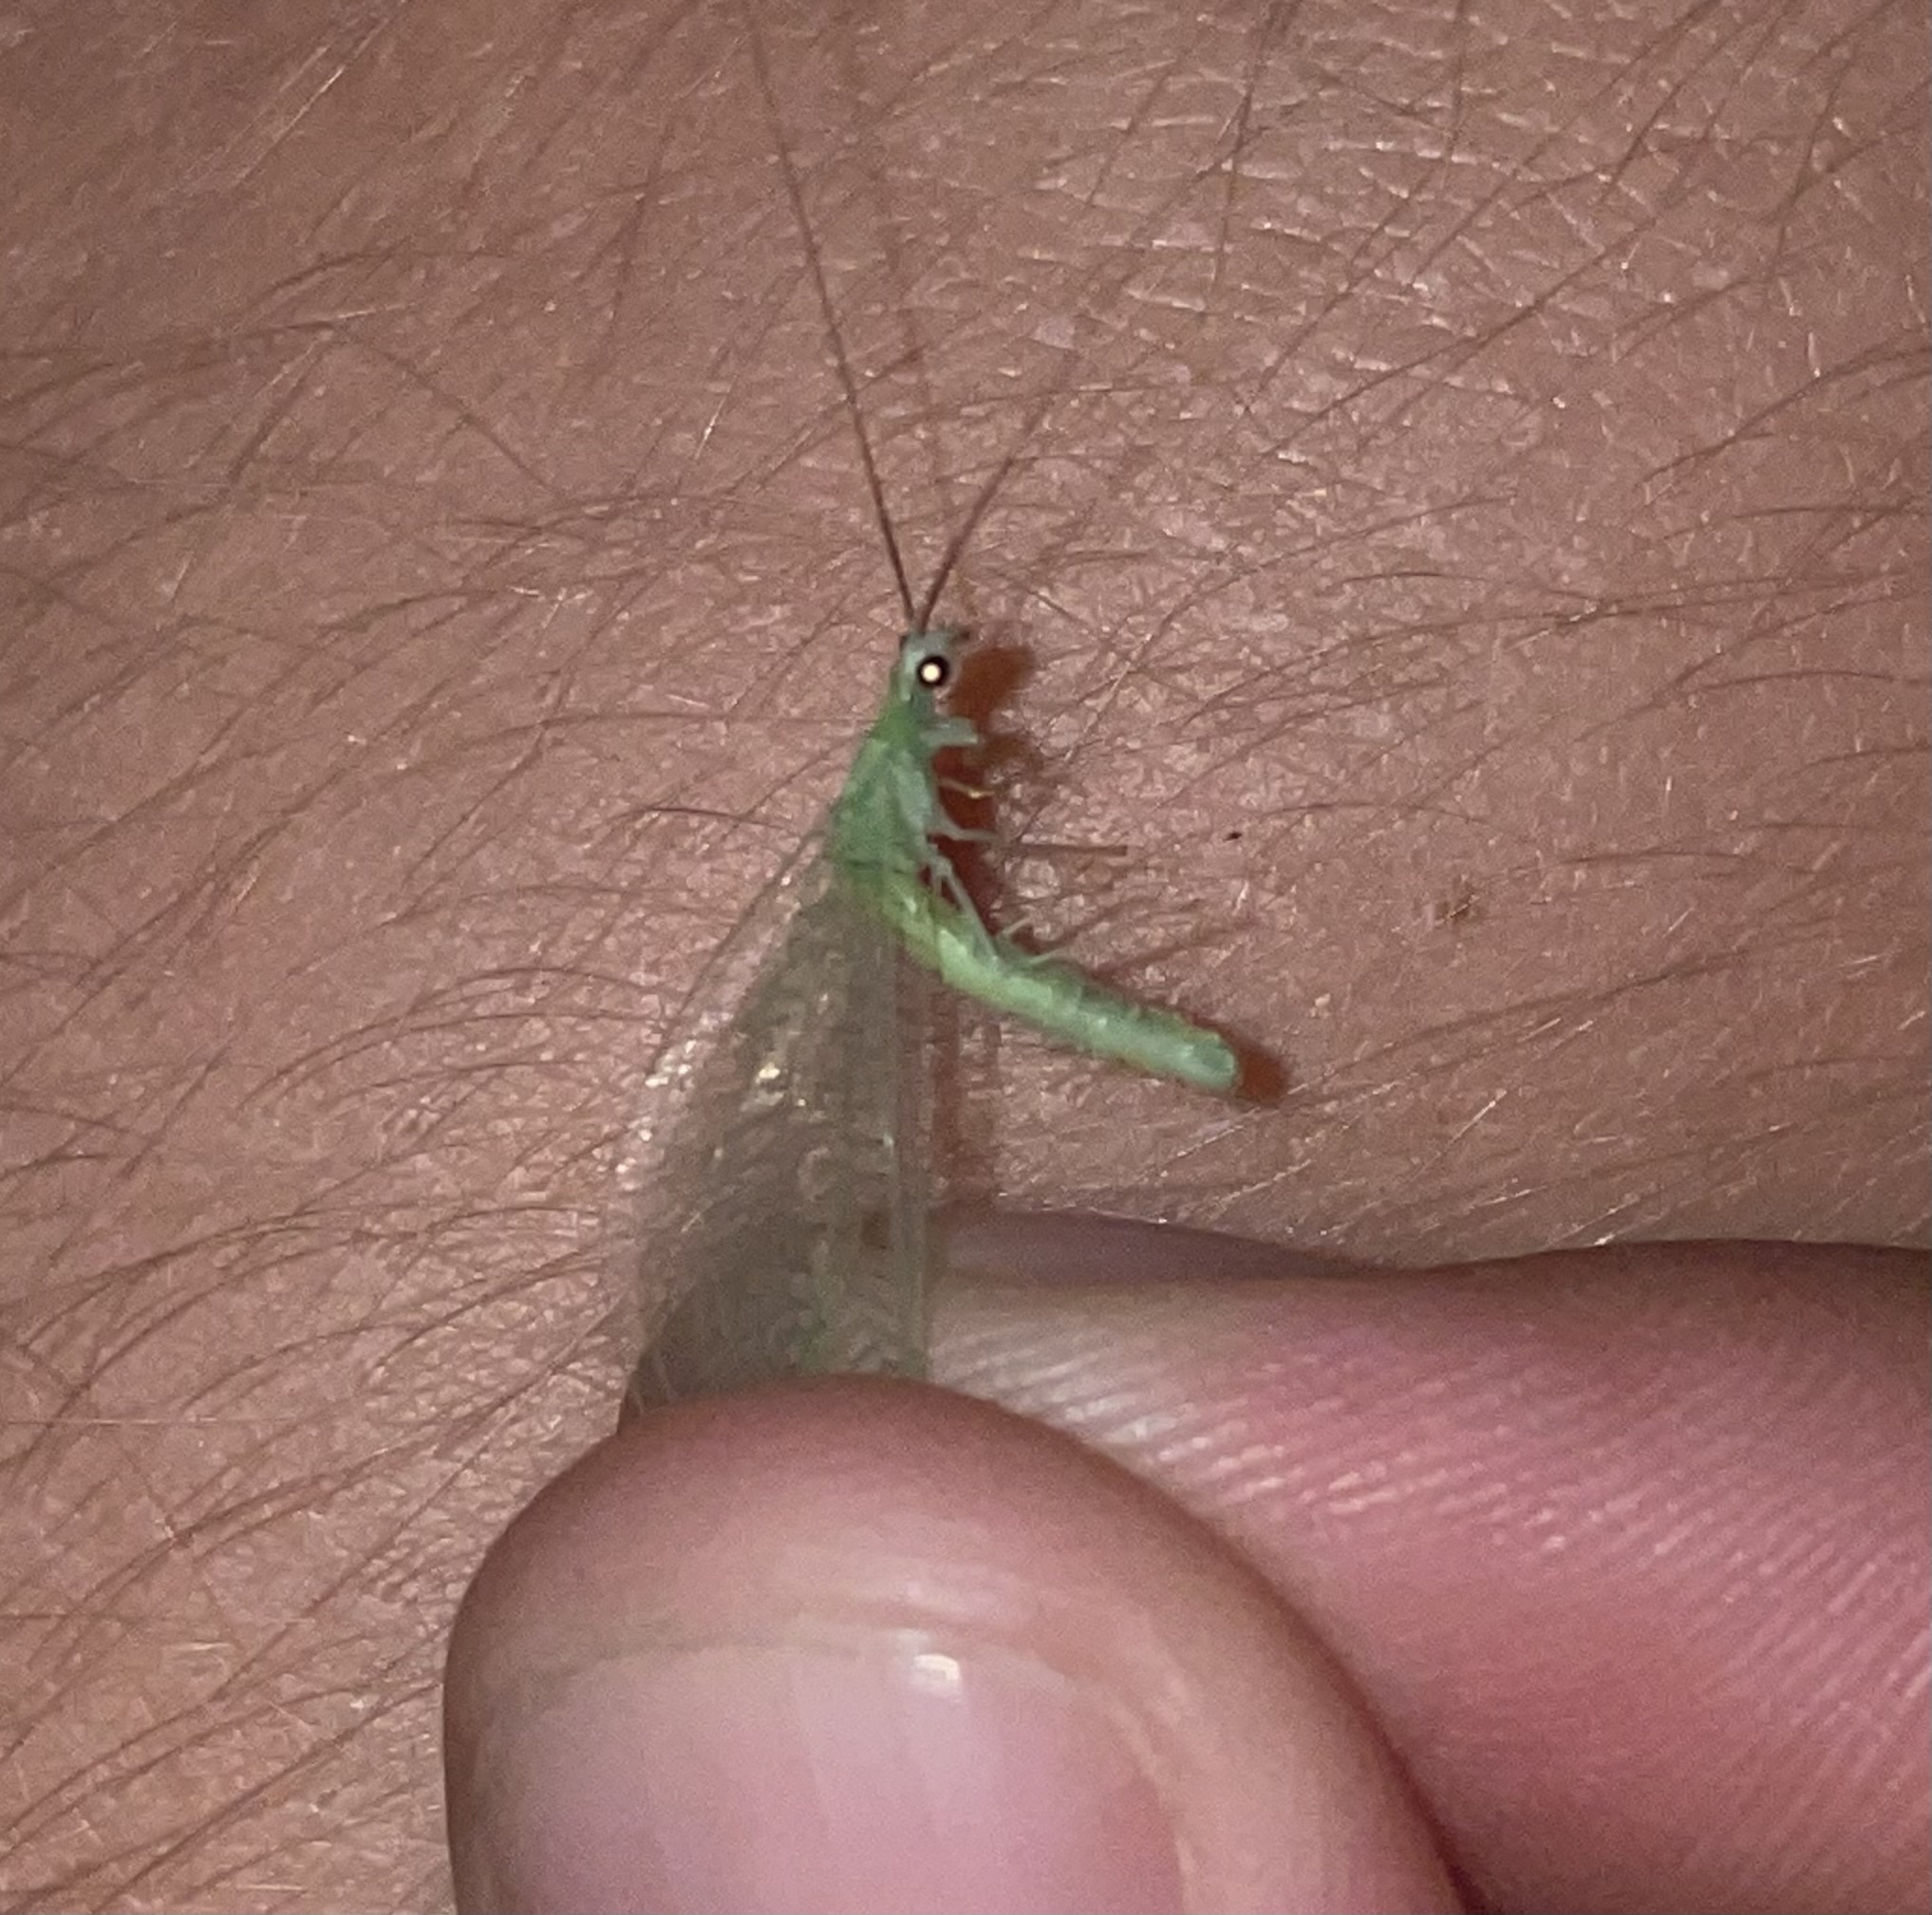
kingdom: Animalia
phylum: Arthropoda
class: Insecta
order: Neuroptera
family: Chrysopidae
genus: Chrysopa
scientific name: Chrysopa nigricornis
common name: Black-horned green lacewing
